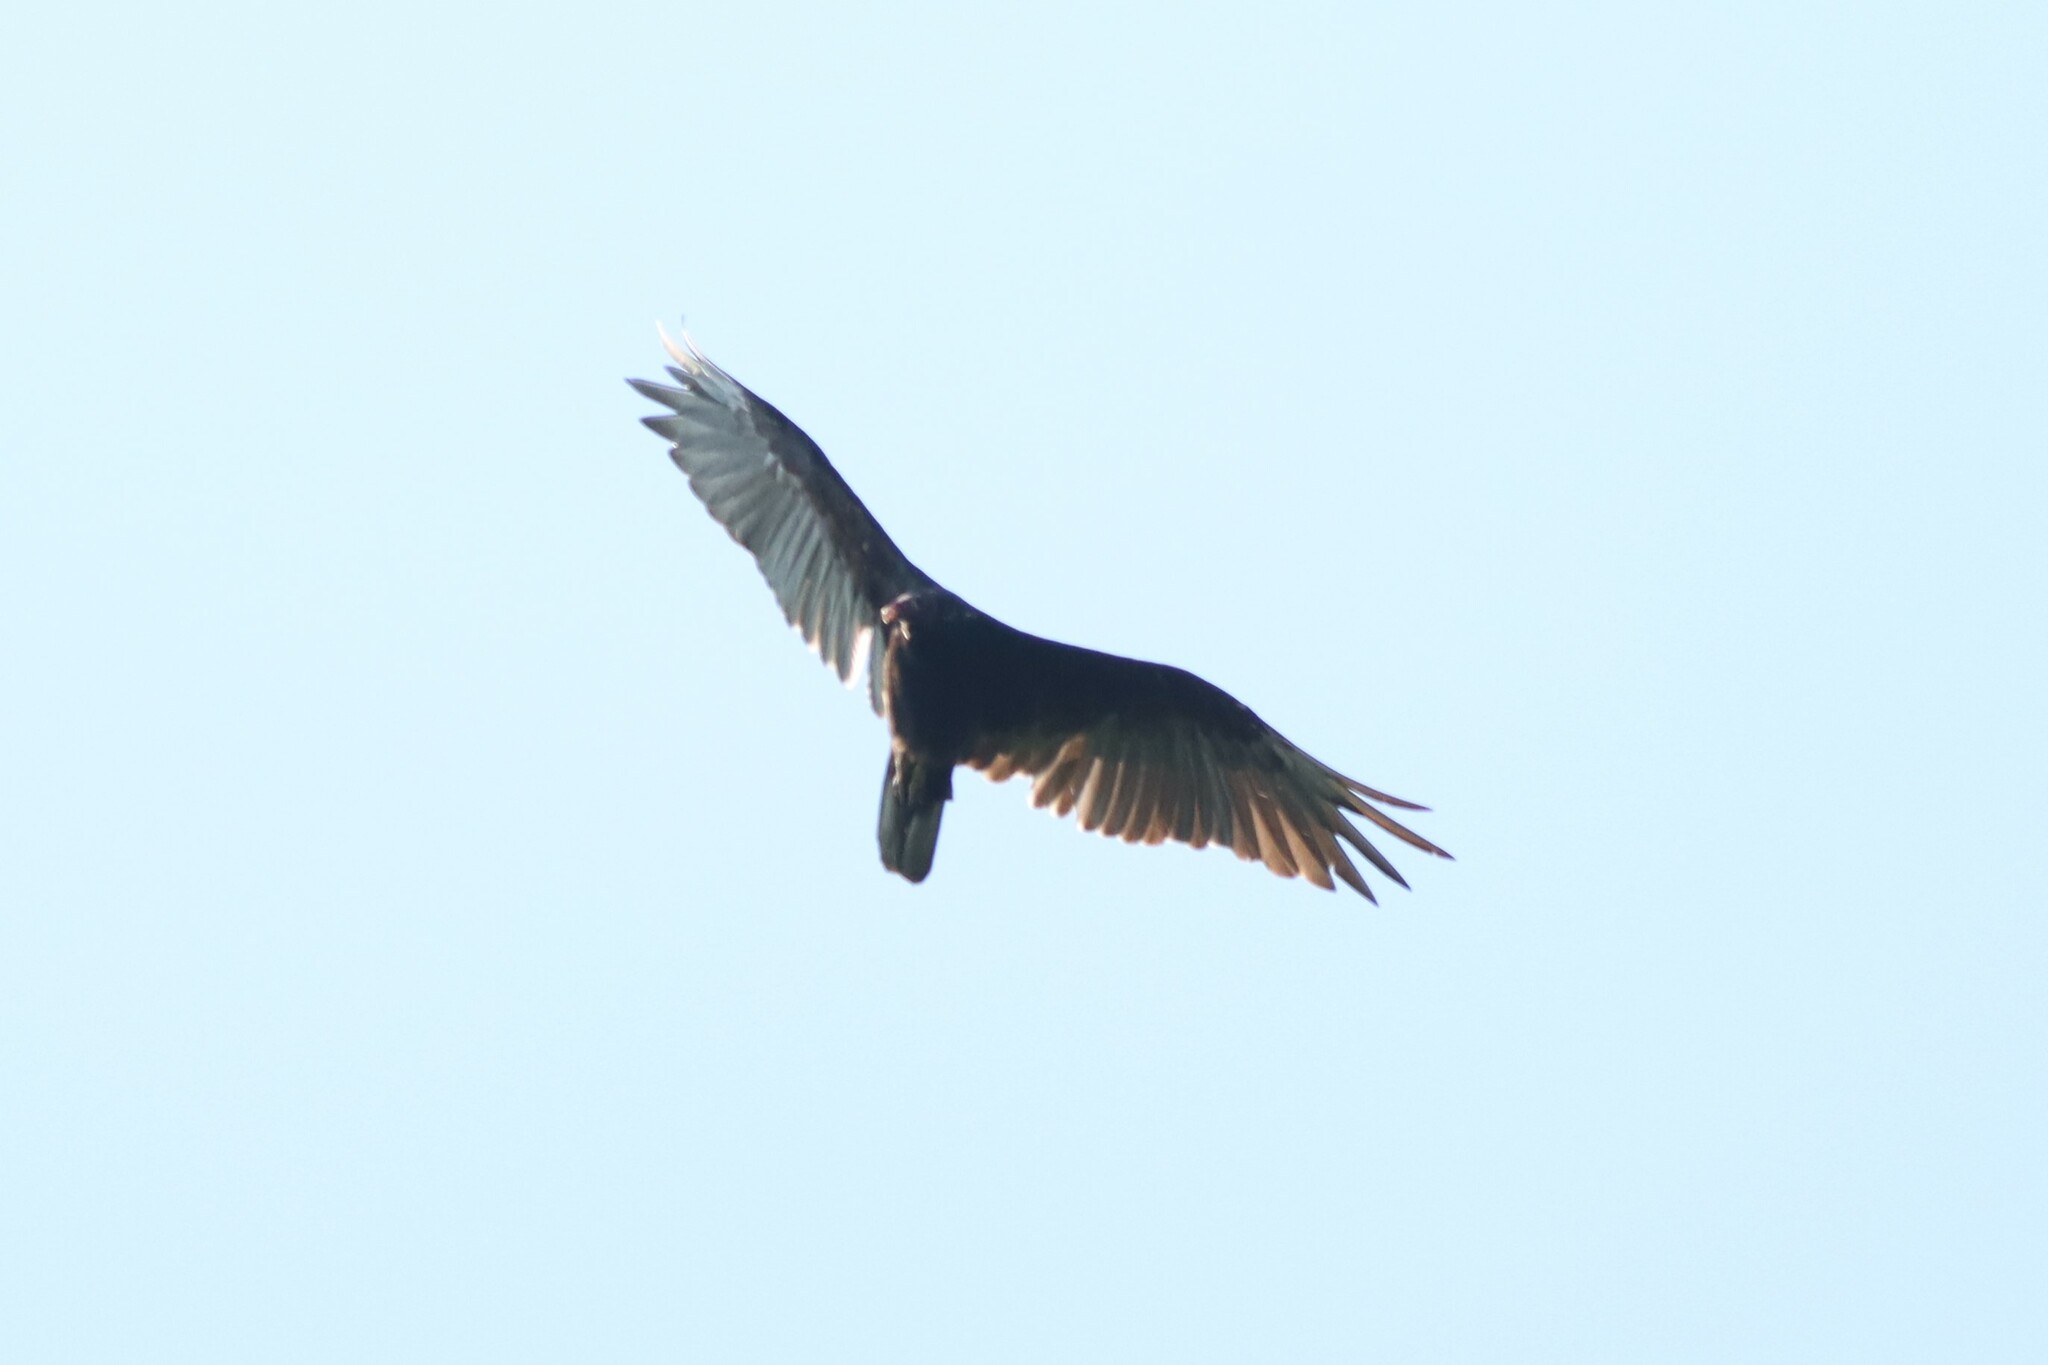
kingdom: Animalia
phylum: Chordata
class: Aves
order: Accipitriformes
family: Cathartidae
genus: Cathartes
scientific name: Cathartes aura
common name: Turkey vulture
